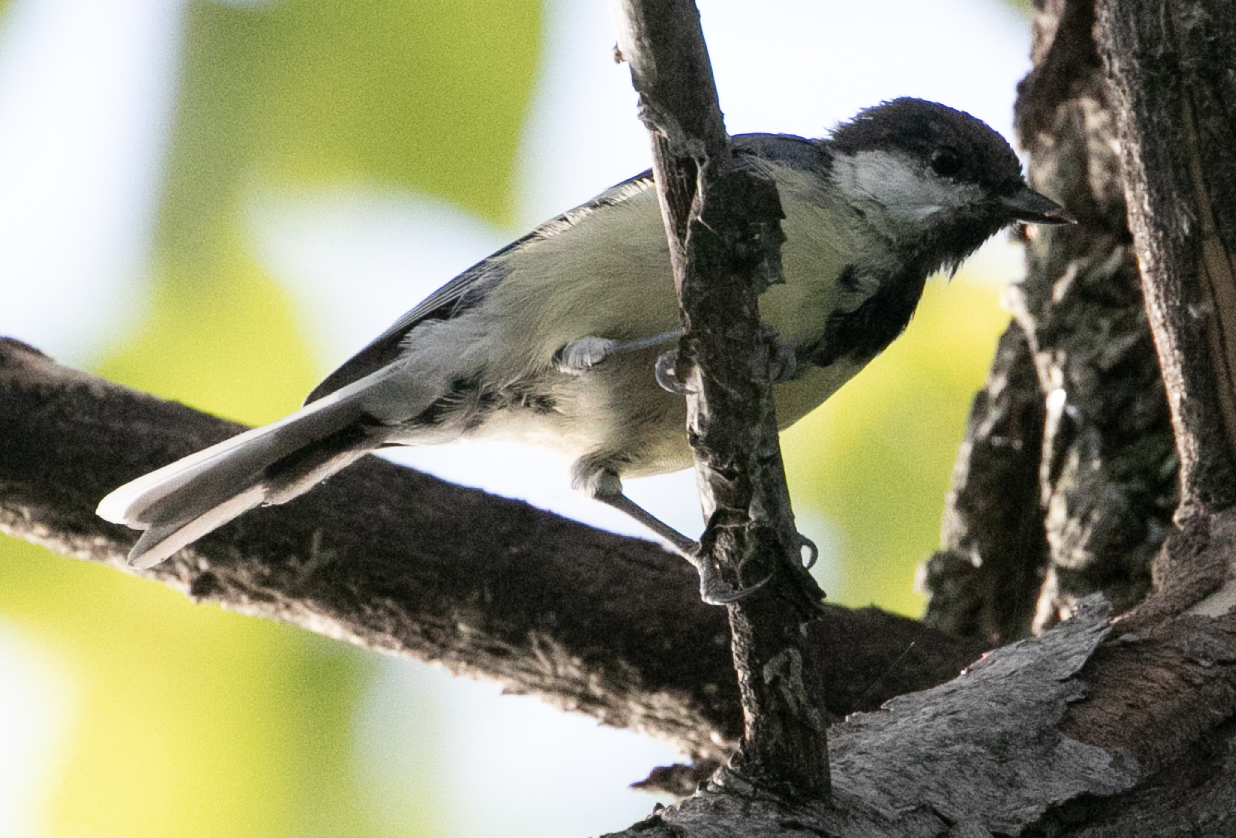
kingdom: Animalia
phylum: Chordata
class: Aves
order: Passeriformes
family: Paridae
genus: Parus
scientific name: Parus major
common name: Great tit
